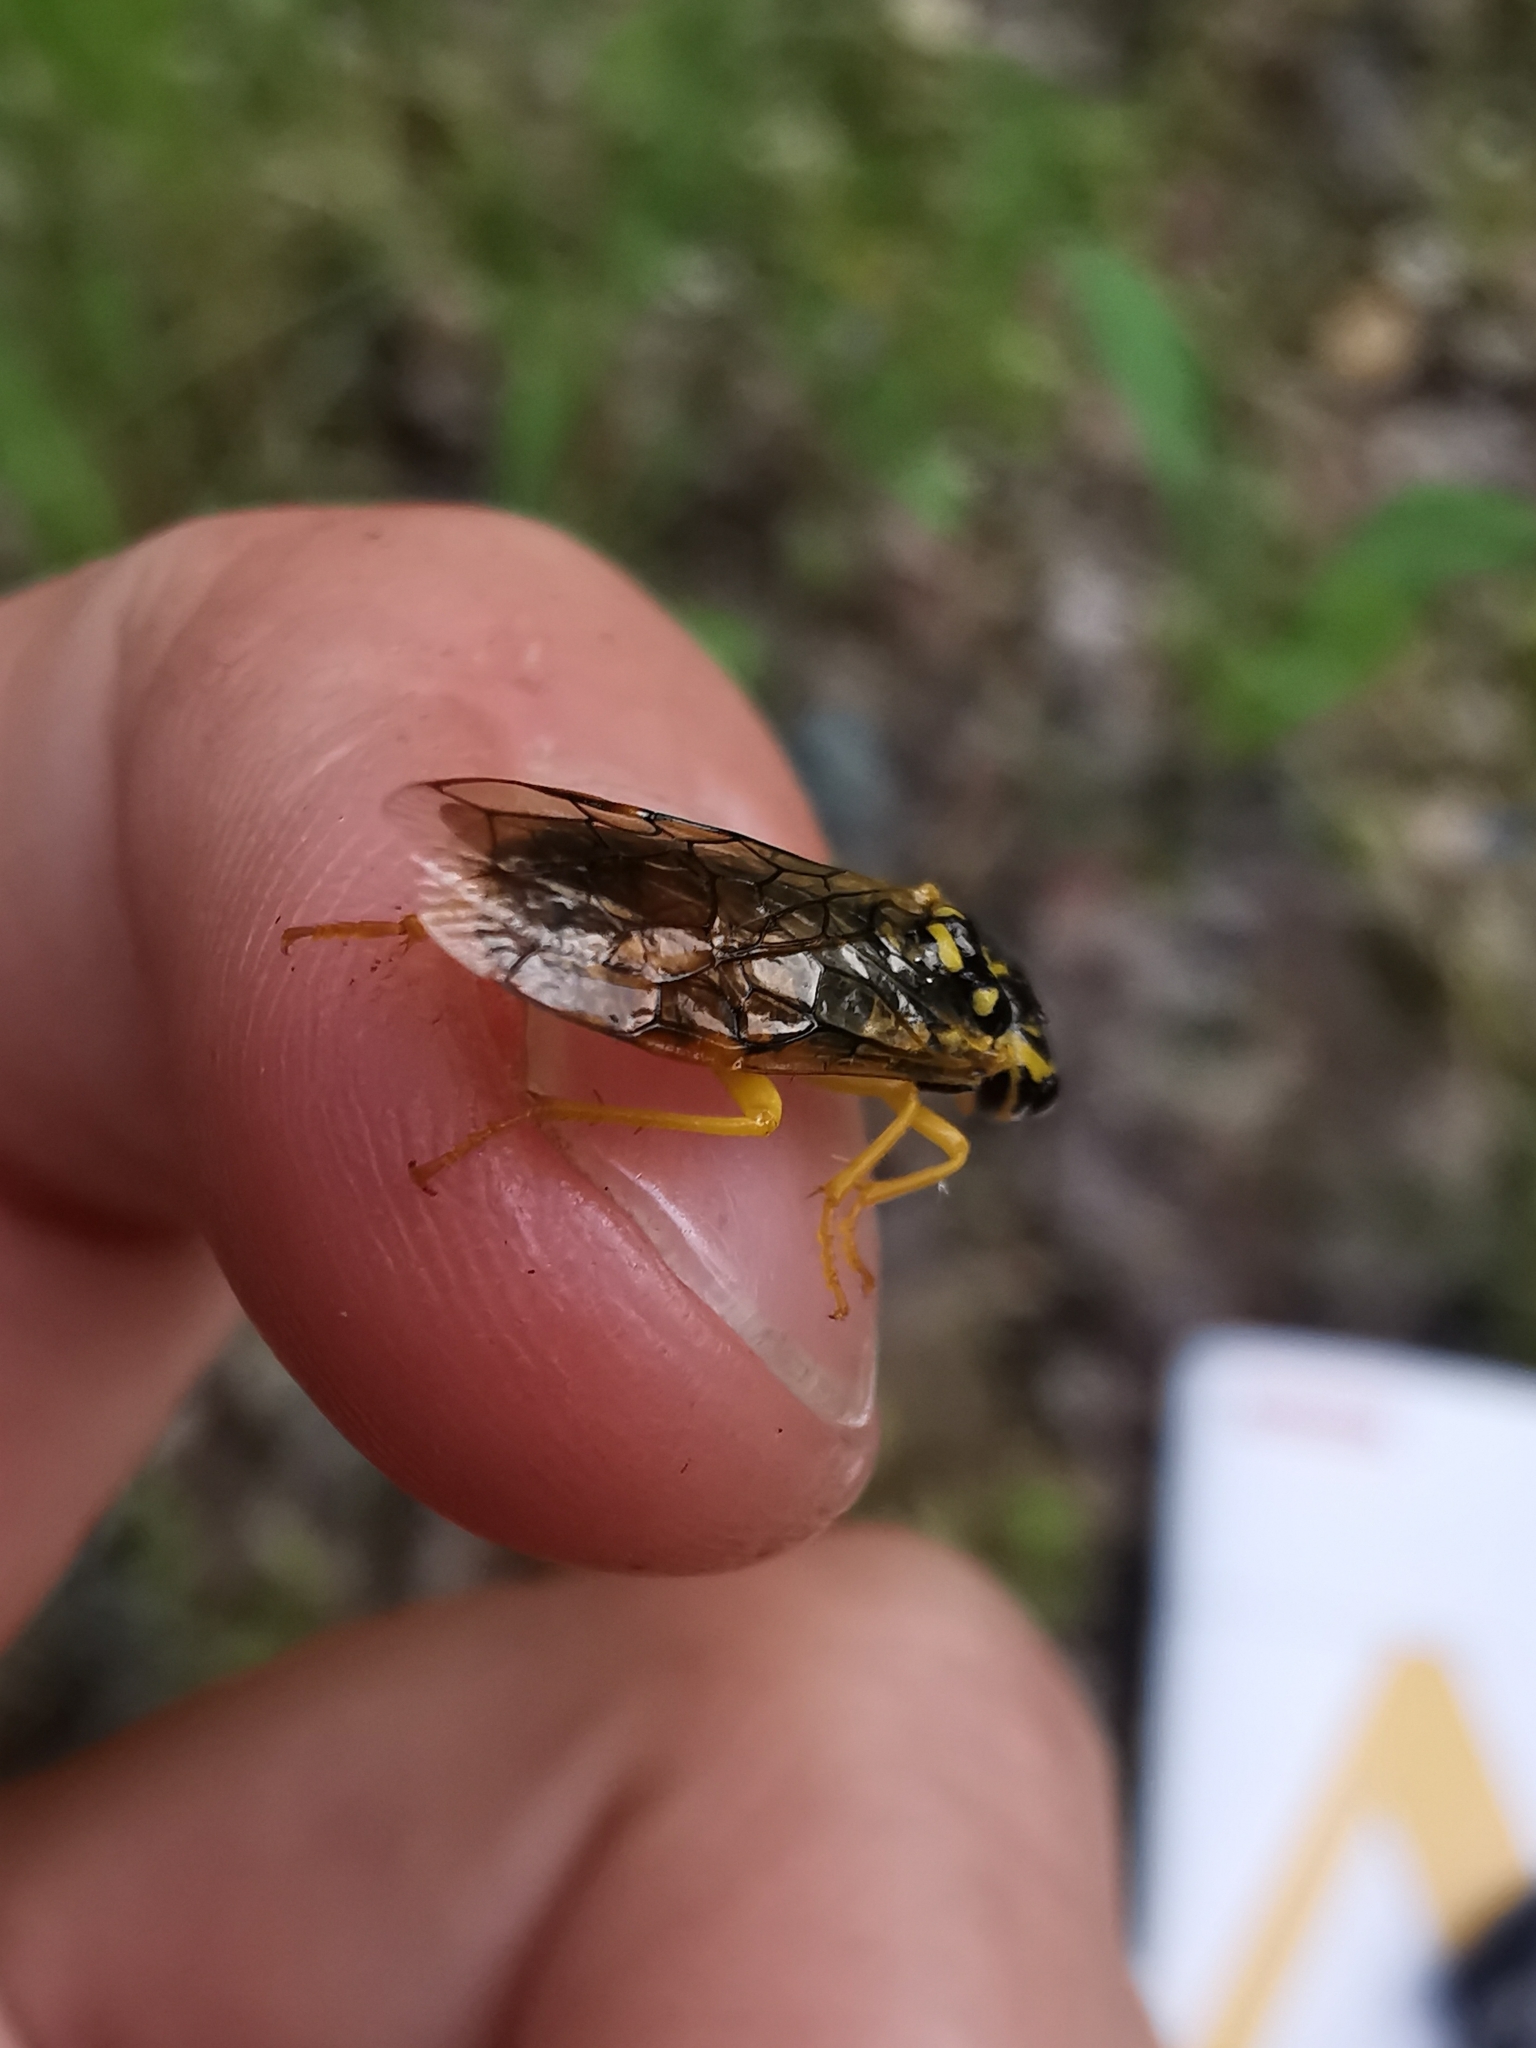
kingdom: Animalia
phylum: Arthropoda
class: Insecta
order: Hymenoptera
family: Pamphiliidae
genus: Pamphilius
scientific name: Pamphilius varius
